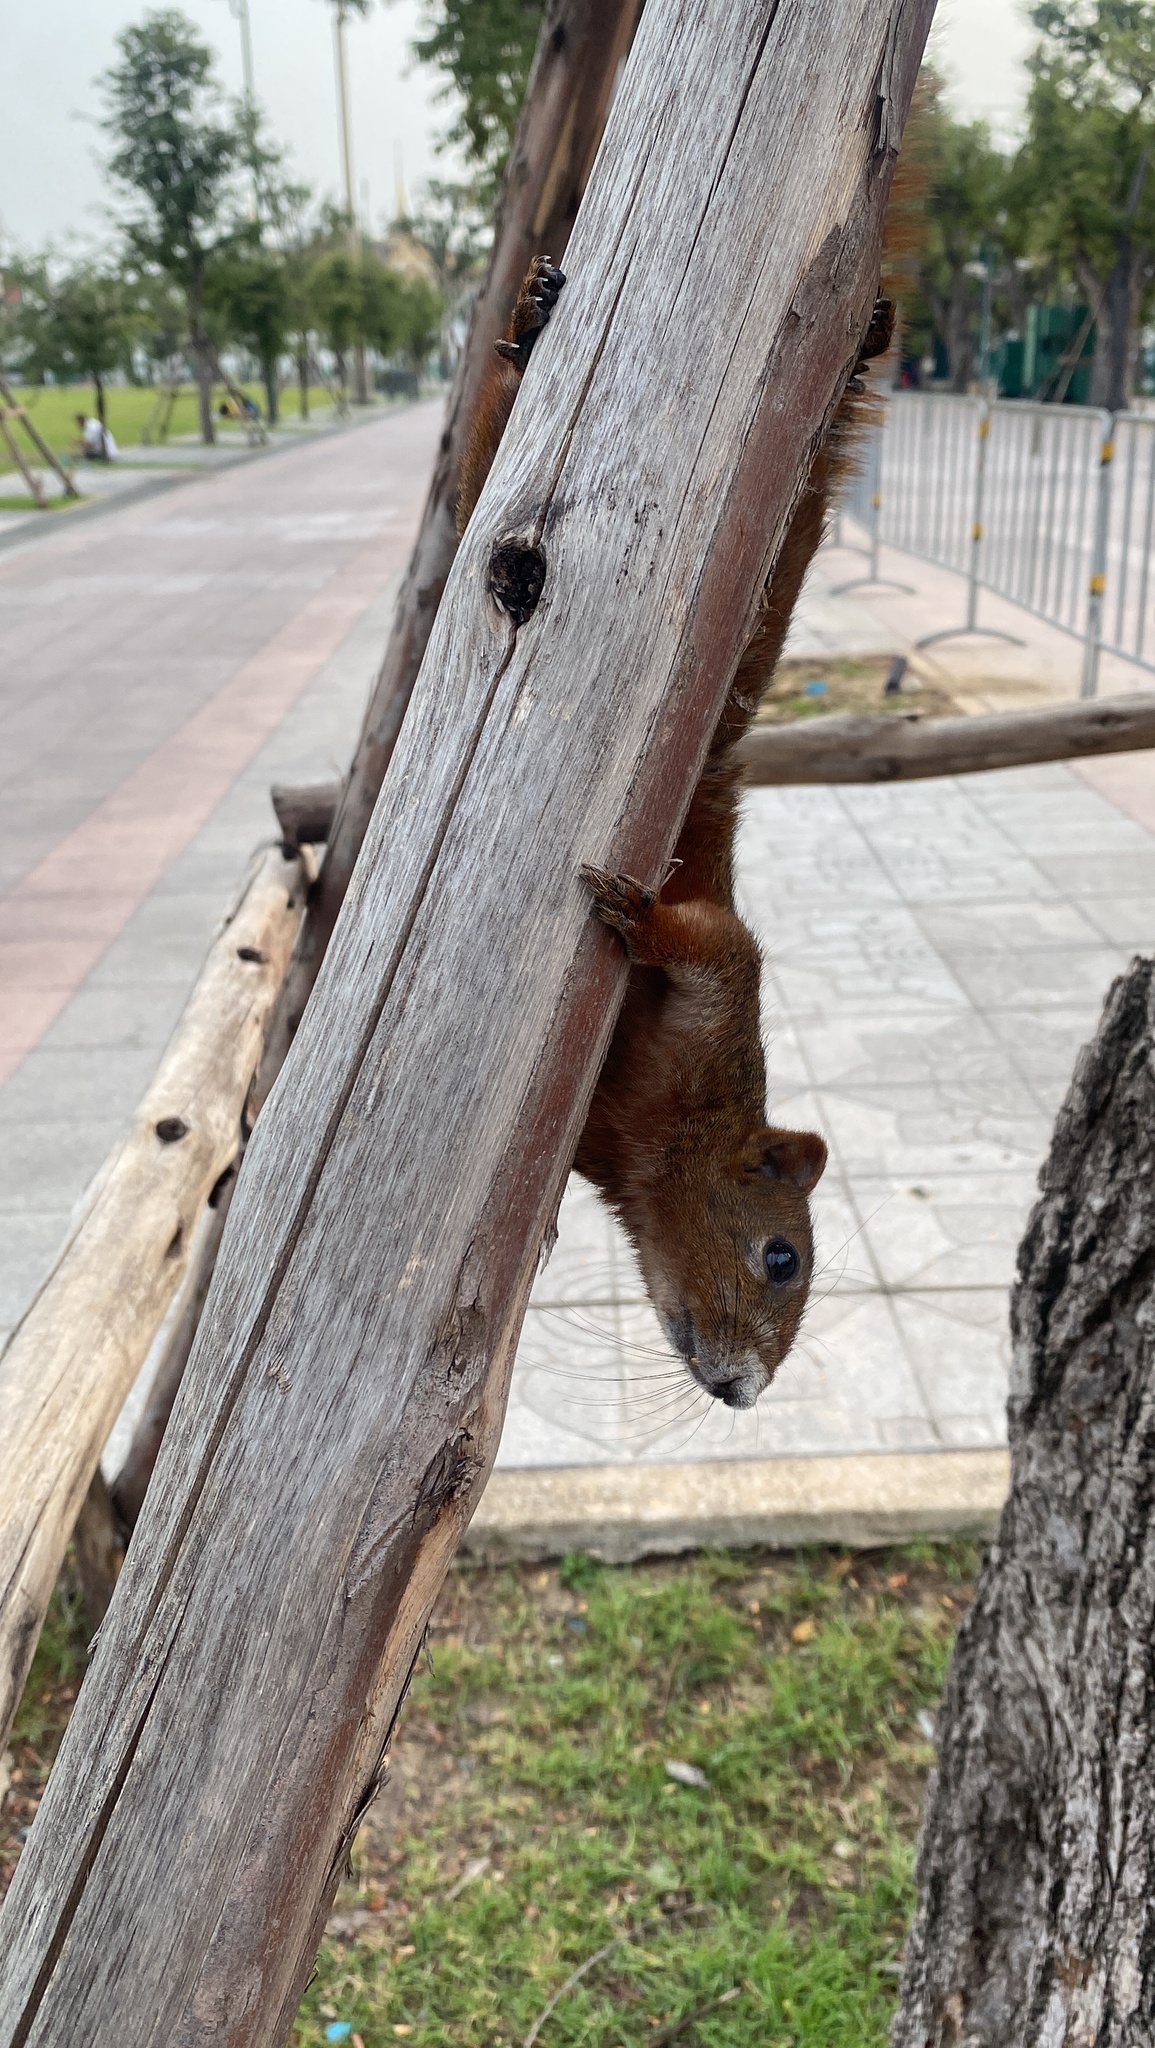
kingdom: Animalia
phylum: Chordata
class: Mammalia
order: Rodentia
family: Sciuridae
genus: Callosciurus
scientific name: Callosciurus erythraeus
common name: Pallas's squirrel
